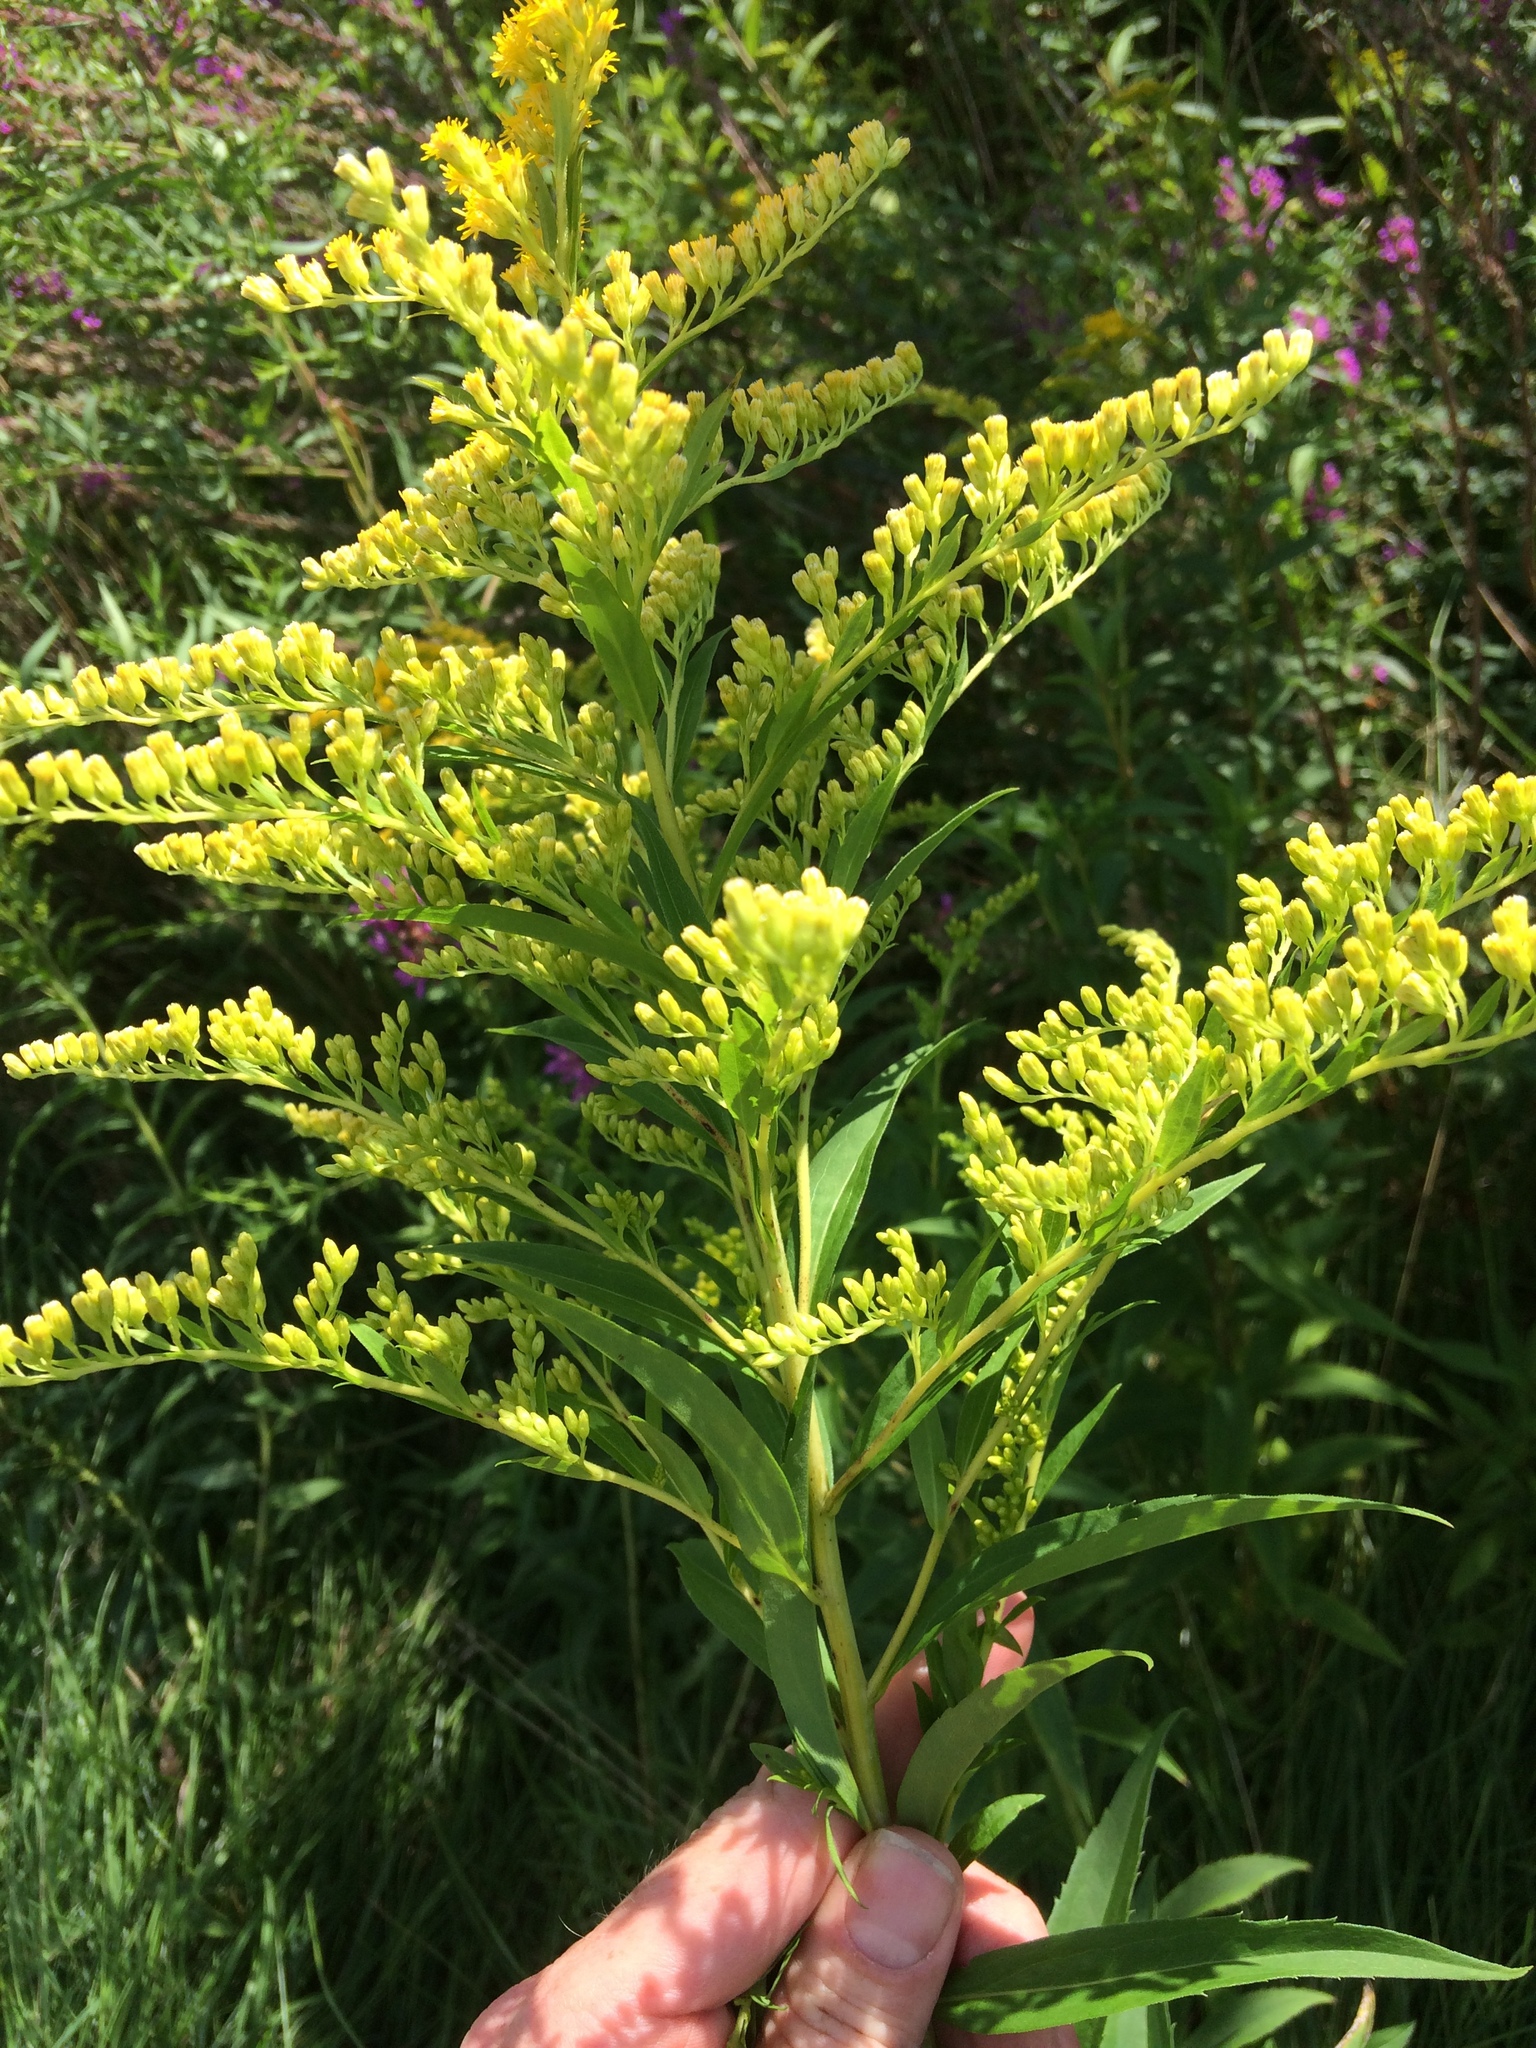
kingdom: Plantae
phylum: Tracheophyta
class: Magnoliopsida
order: Asterales
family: Asteraceae
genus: Solidago
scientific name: Solidago gigantea
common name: Giant goldenrod
